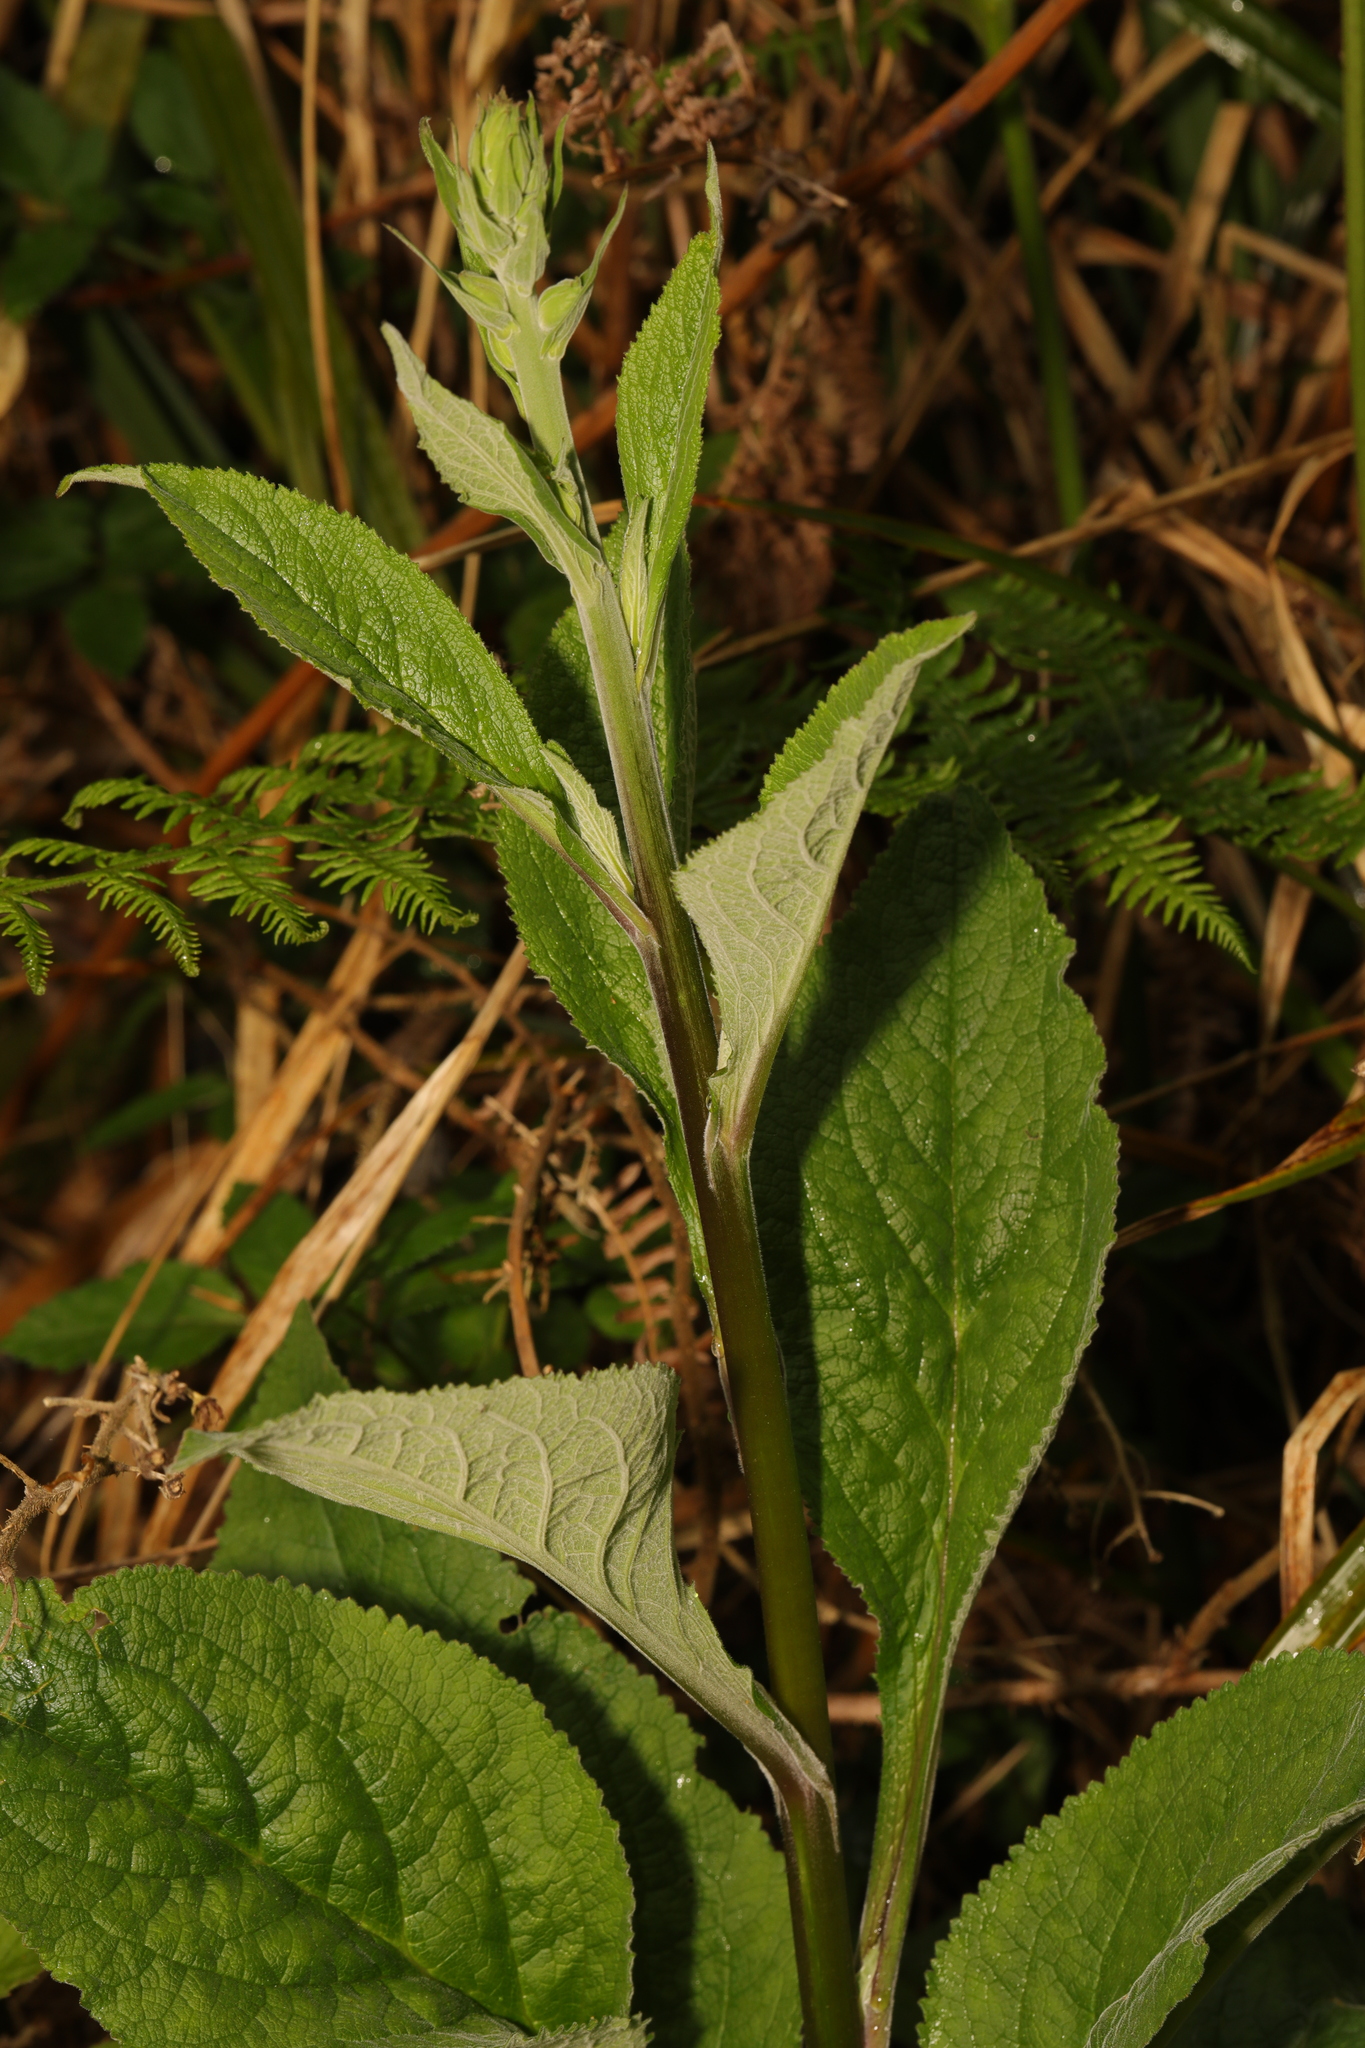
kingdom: Plantae
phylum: Tracheophyta
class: Magnoliopsida
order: Lamiales
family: Plantaginaceae
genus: Digitalis
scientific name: Digitalis purpurea
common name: Foxglove
